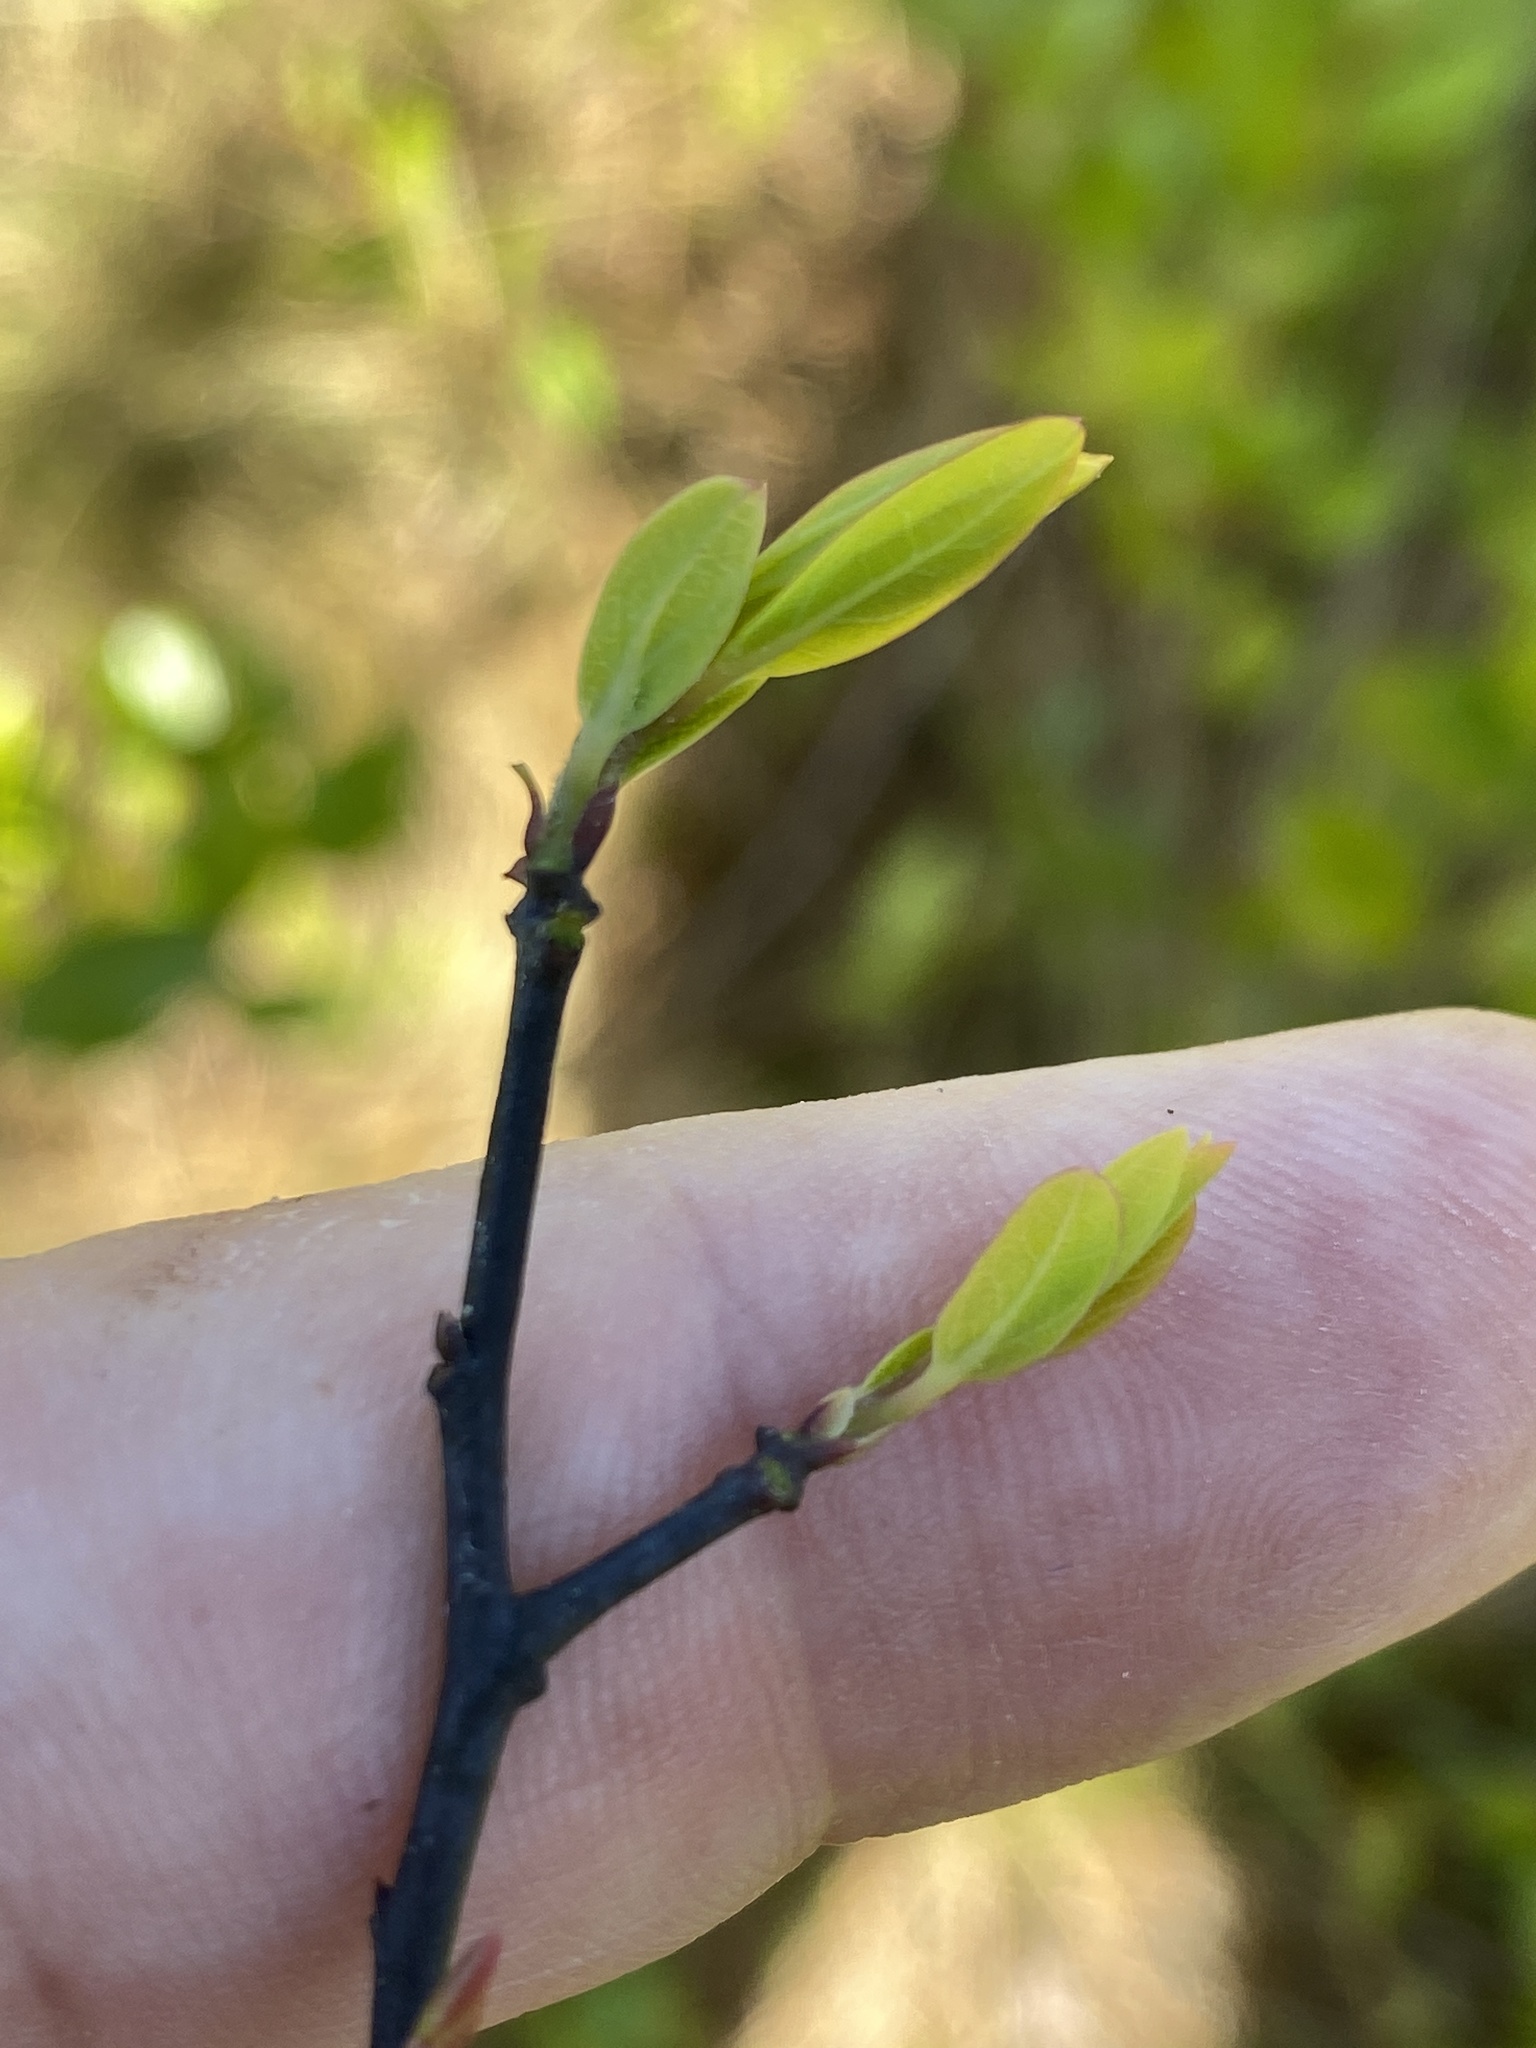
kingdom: Plantae
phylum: Tracheophyta
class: Magnoliopsida
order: Laurales
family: Lauraceae
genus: Litsea
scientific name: Litsea aestivalis
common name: Pondspice
